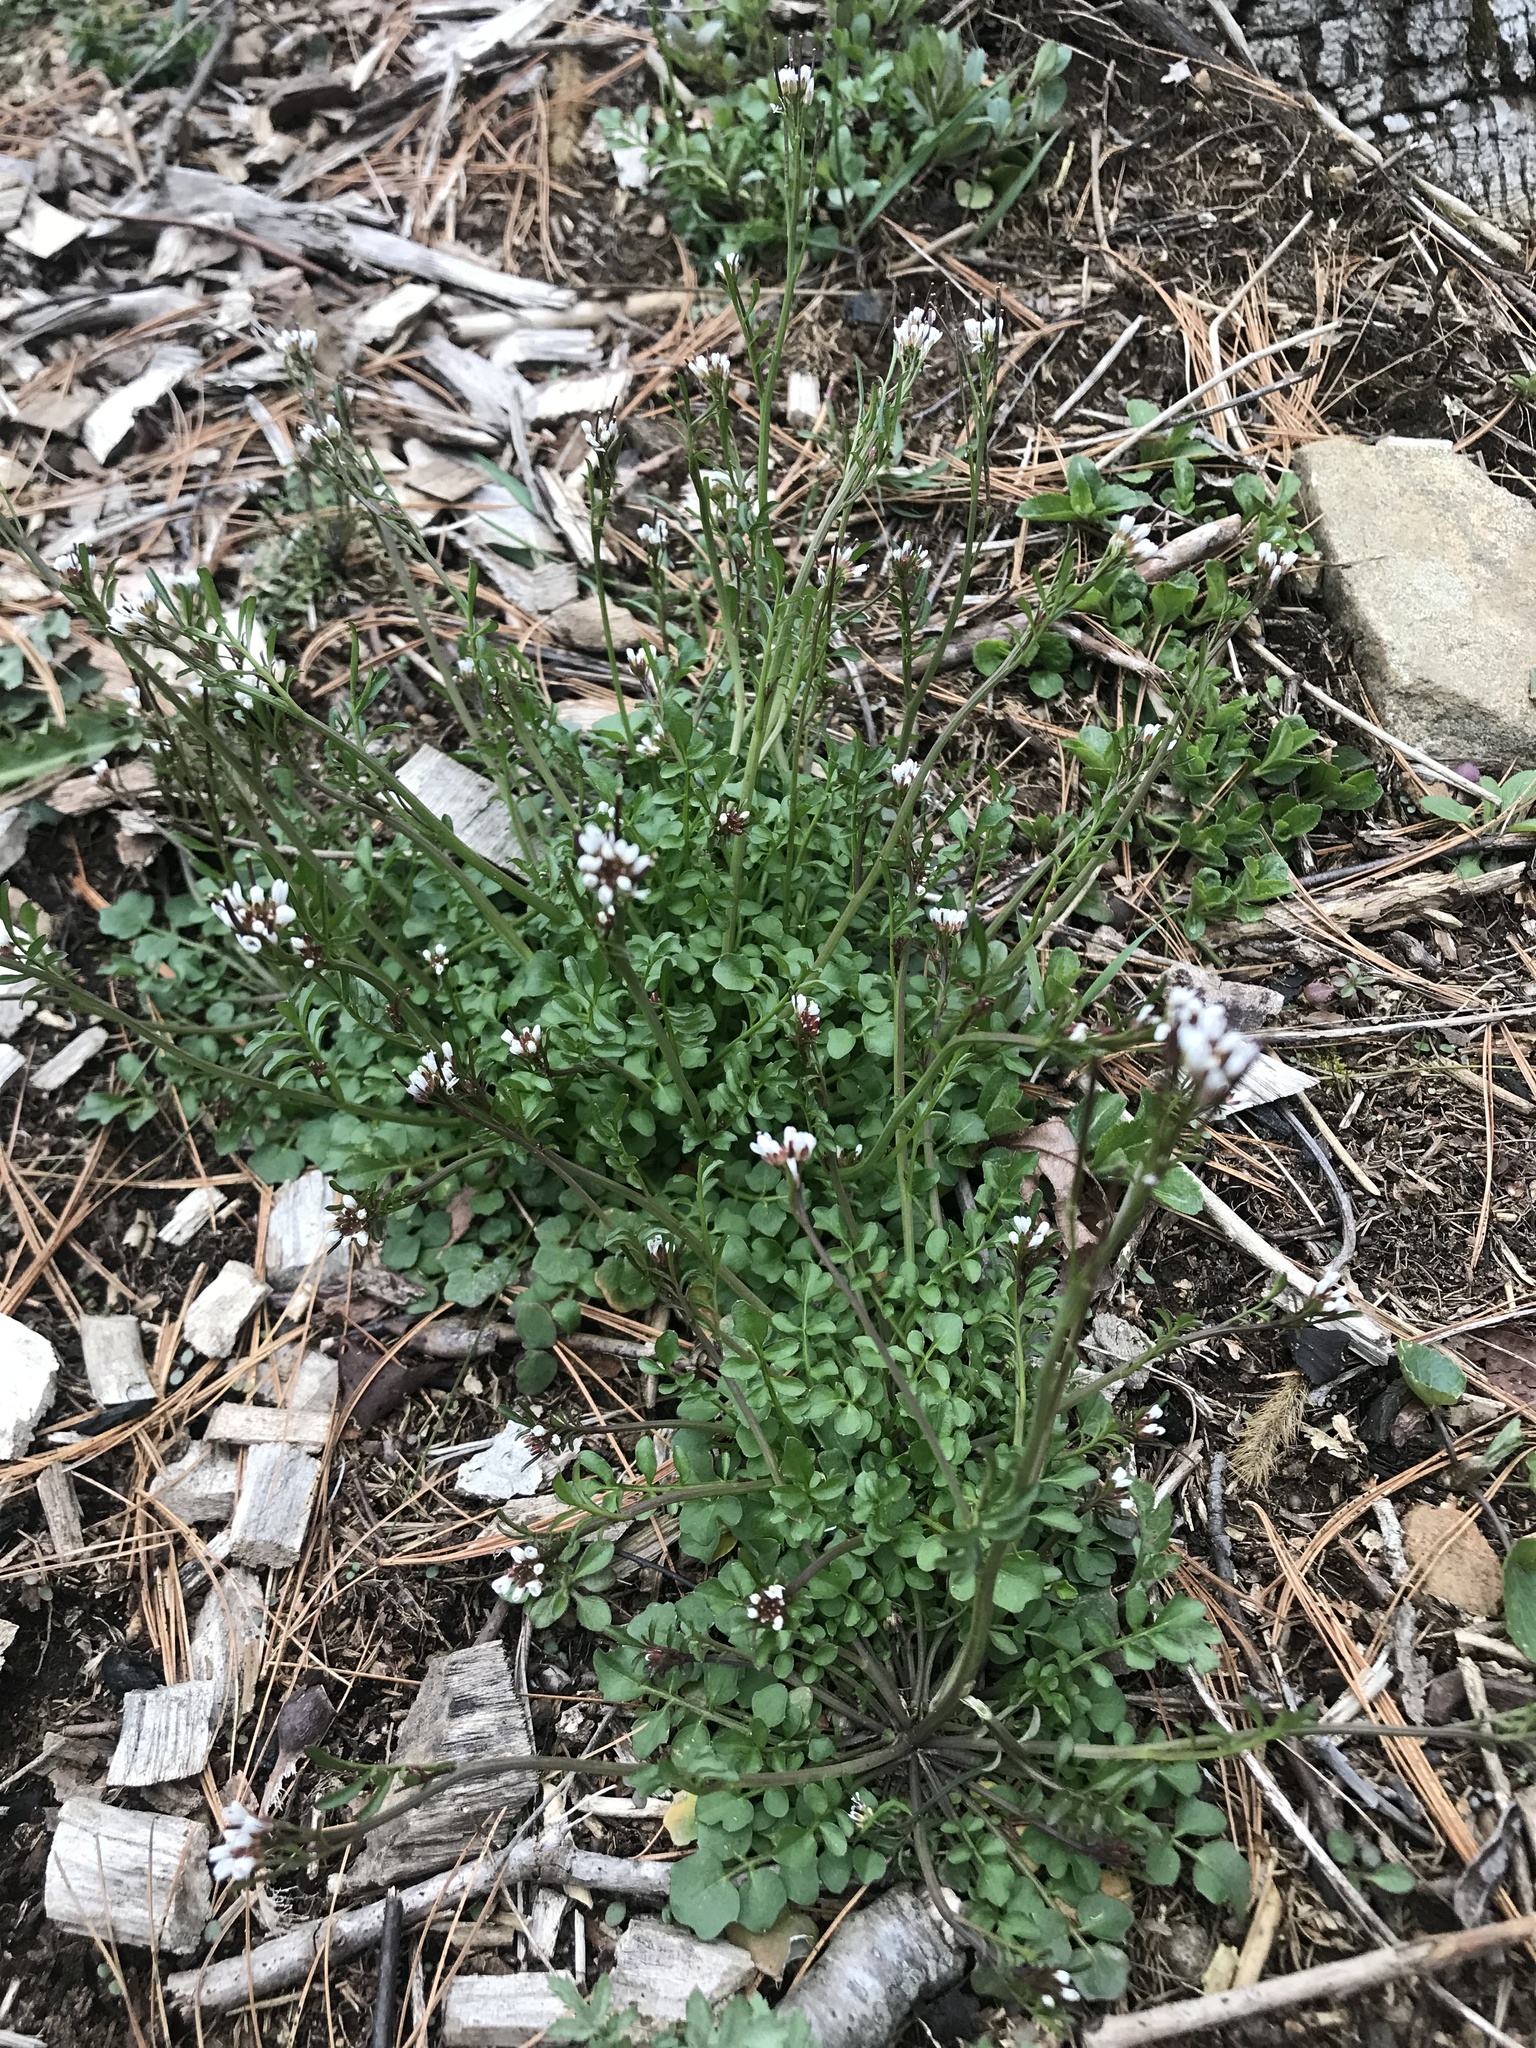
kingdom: Plantae
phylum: Tracheophyta
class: Magnoliopsida
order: Brassicales
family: Brassicaceae
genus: Cardamine
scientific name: Cardamine hirsuta
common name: Hairy bittercress
